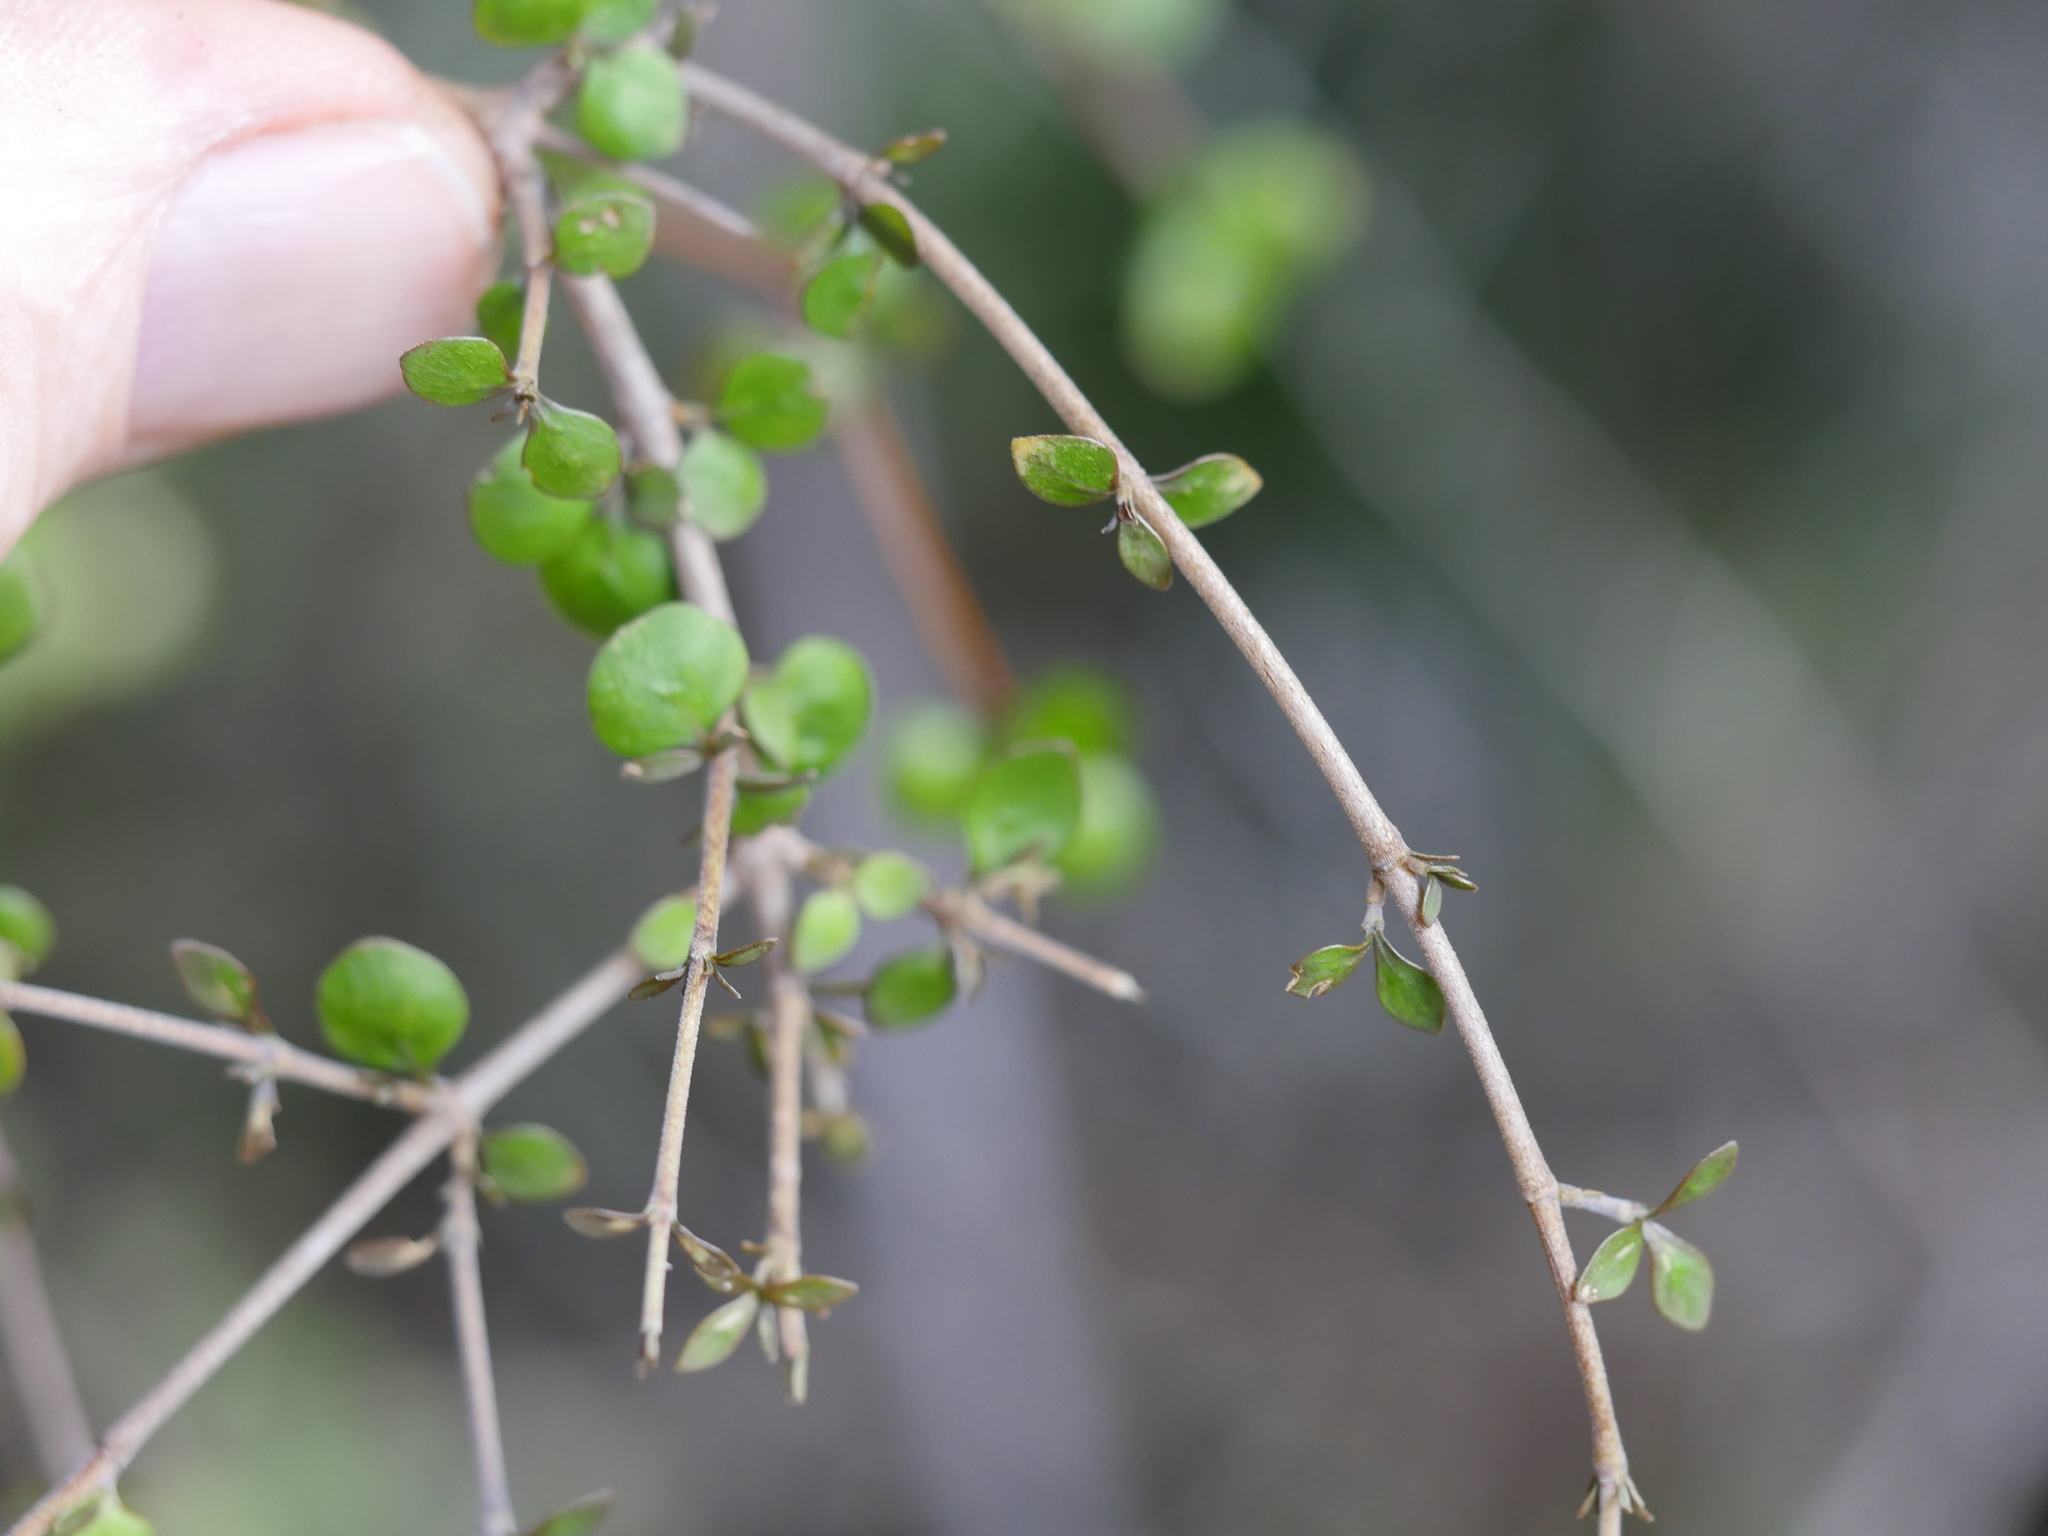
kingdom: Plantae
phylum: Tracheophyta
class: Magnoliopsida
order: Gentianales
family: Rubiaceae
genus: Coprosma
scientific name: Coprosma rhamnoides
